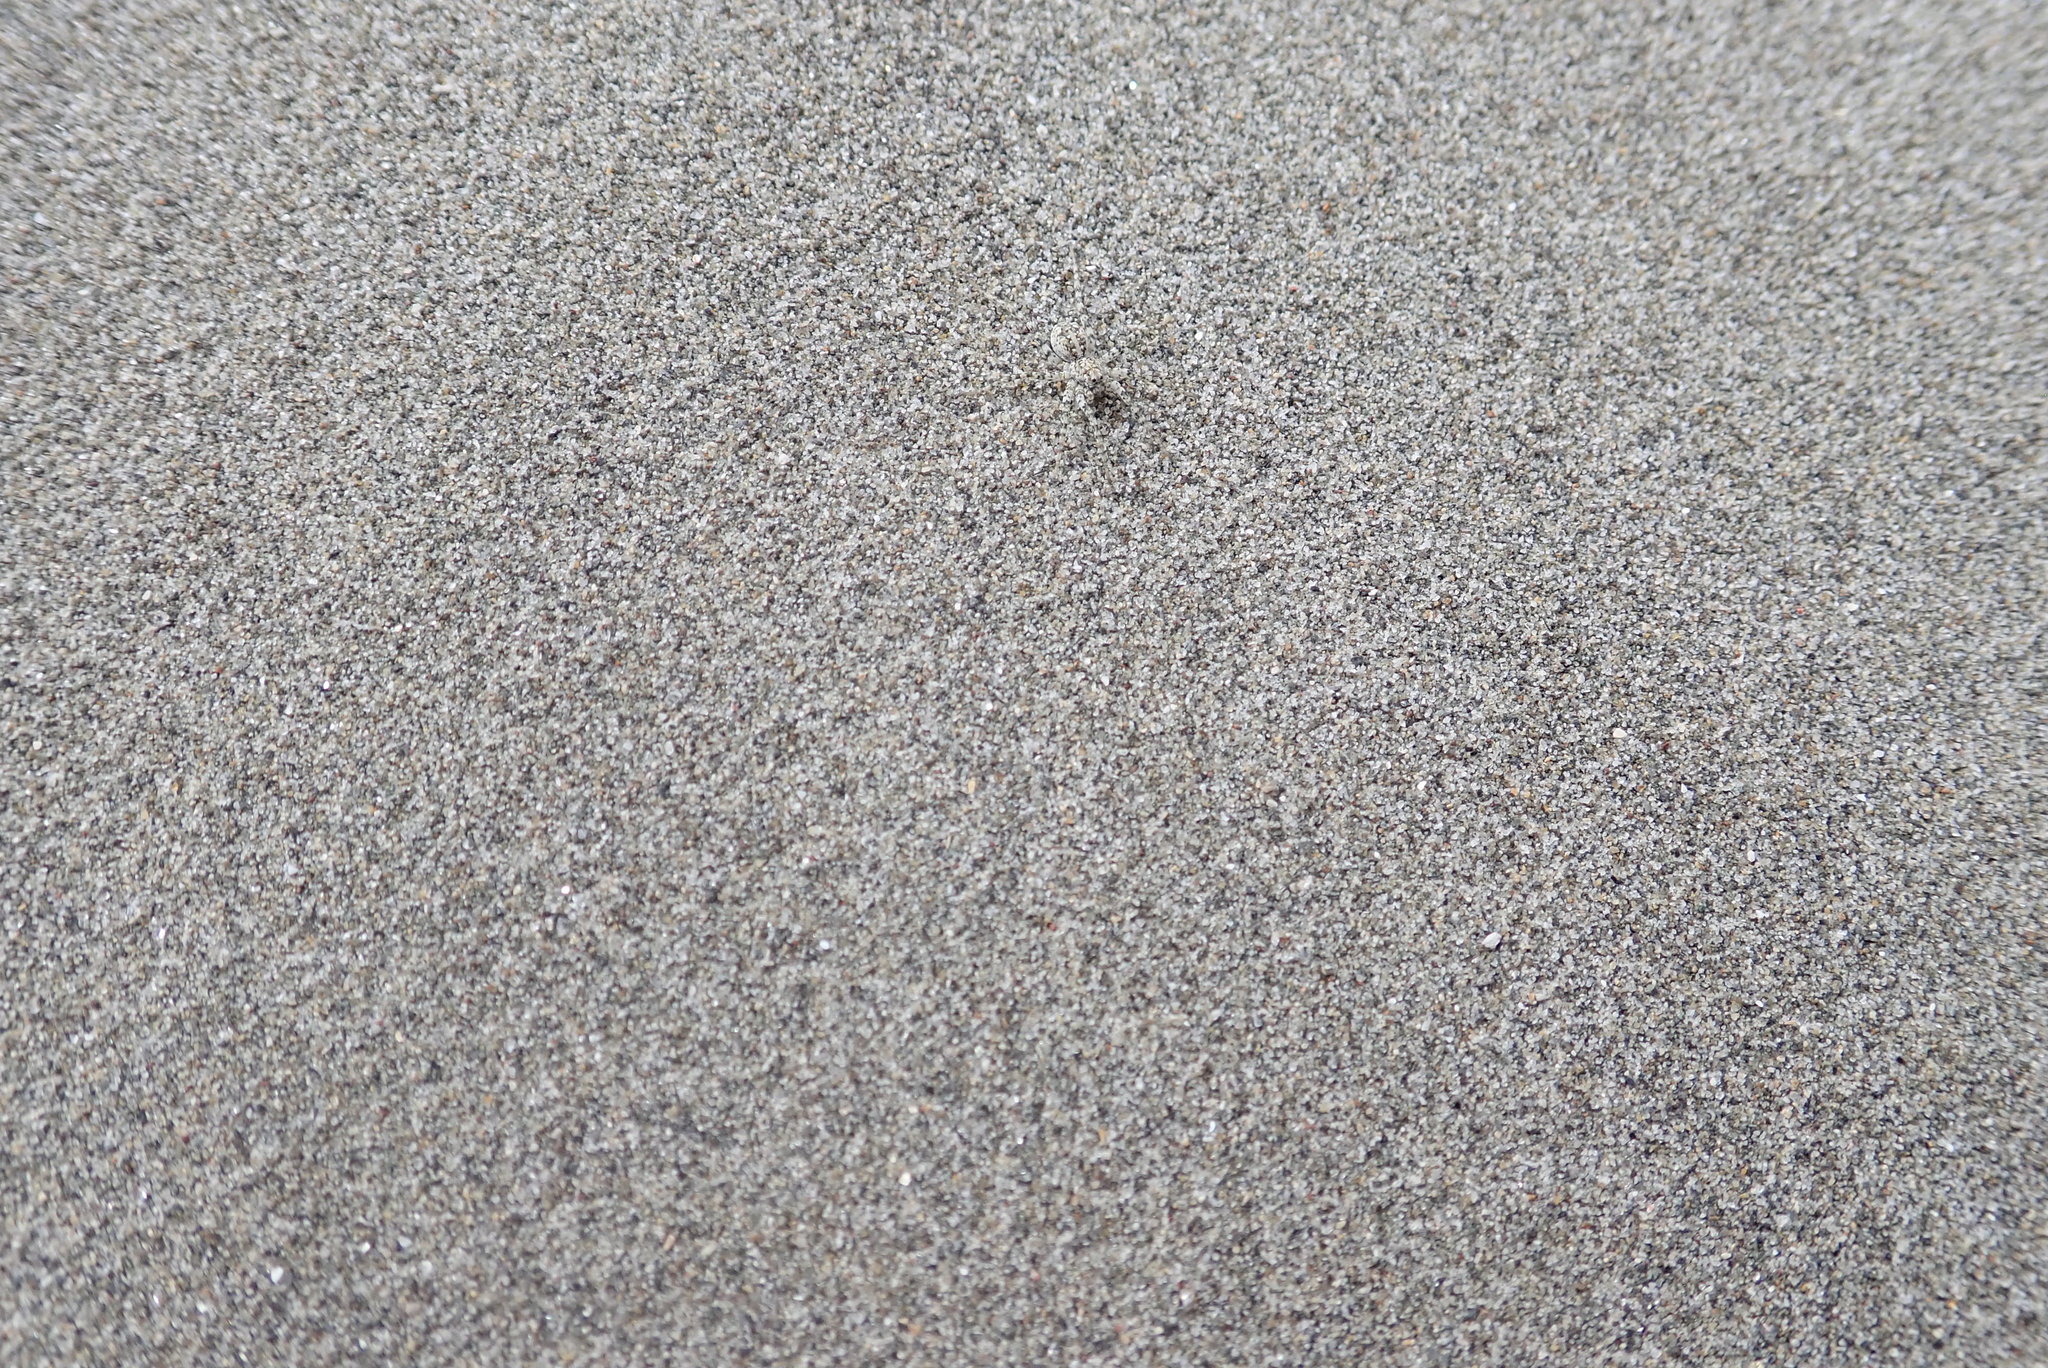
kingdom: Animalia
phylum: Arthropoda
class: Arachnida
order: Araneae
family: Lycosidae
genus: Anoteropsis
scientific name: Anoteropsis litoralis
